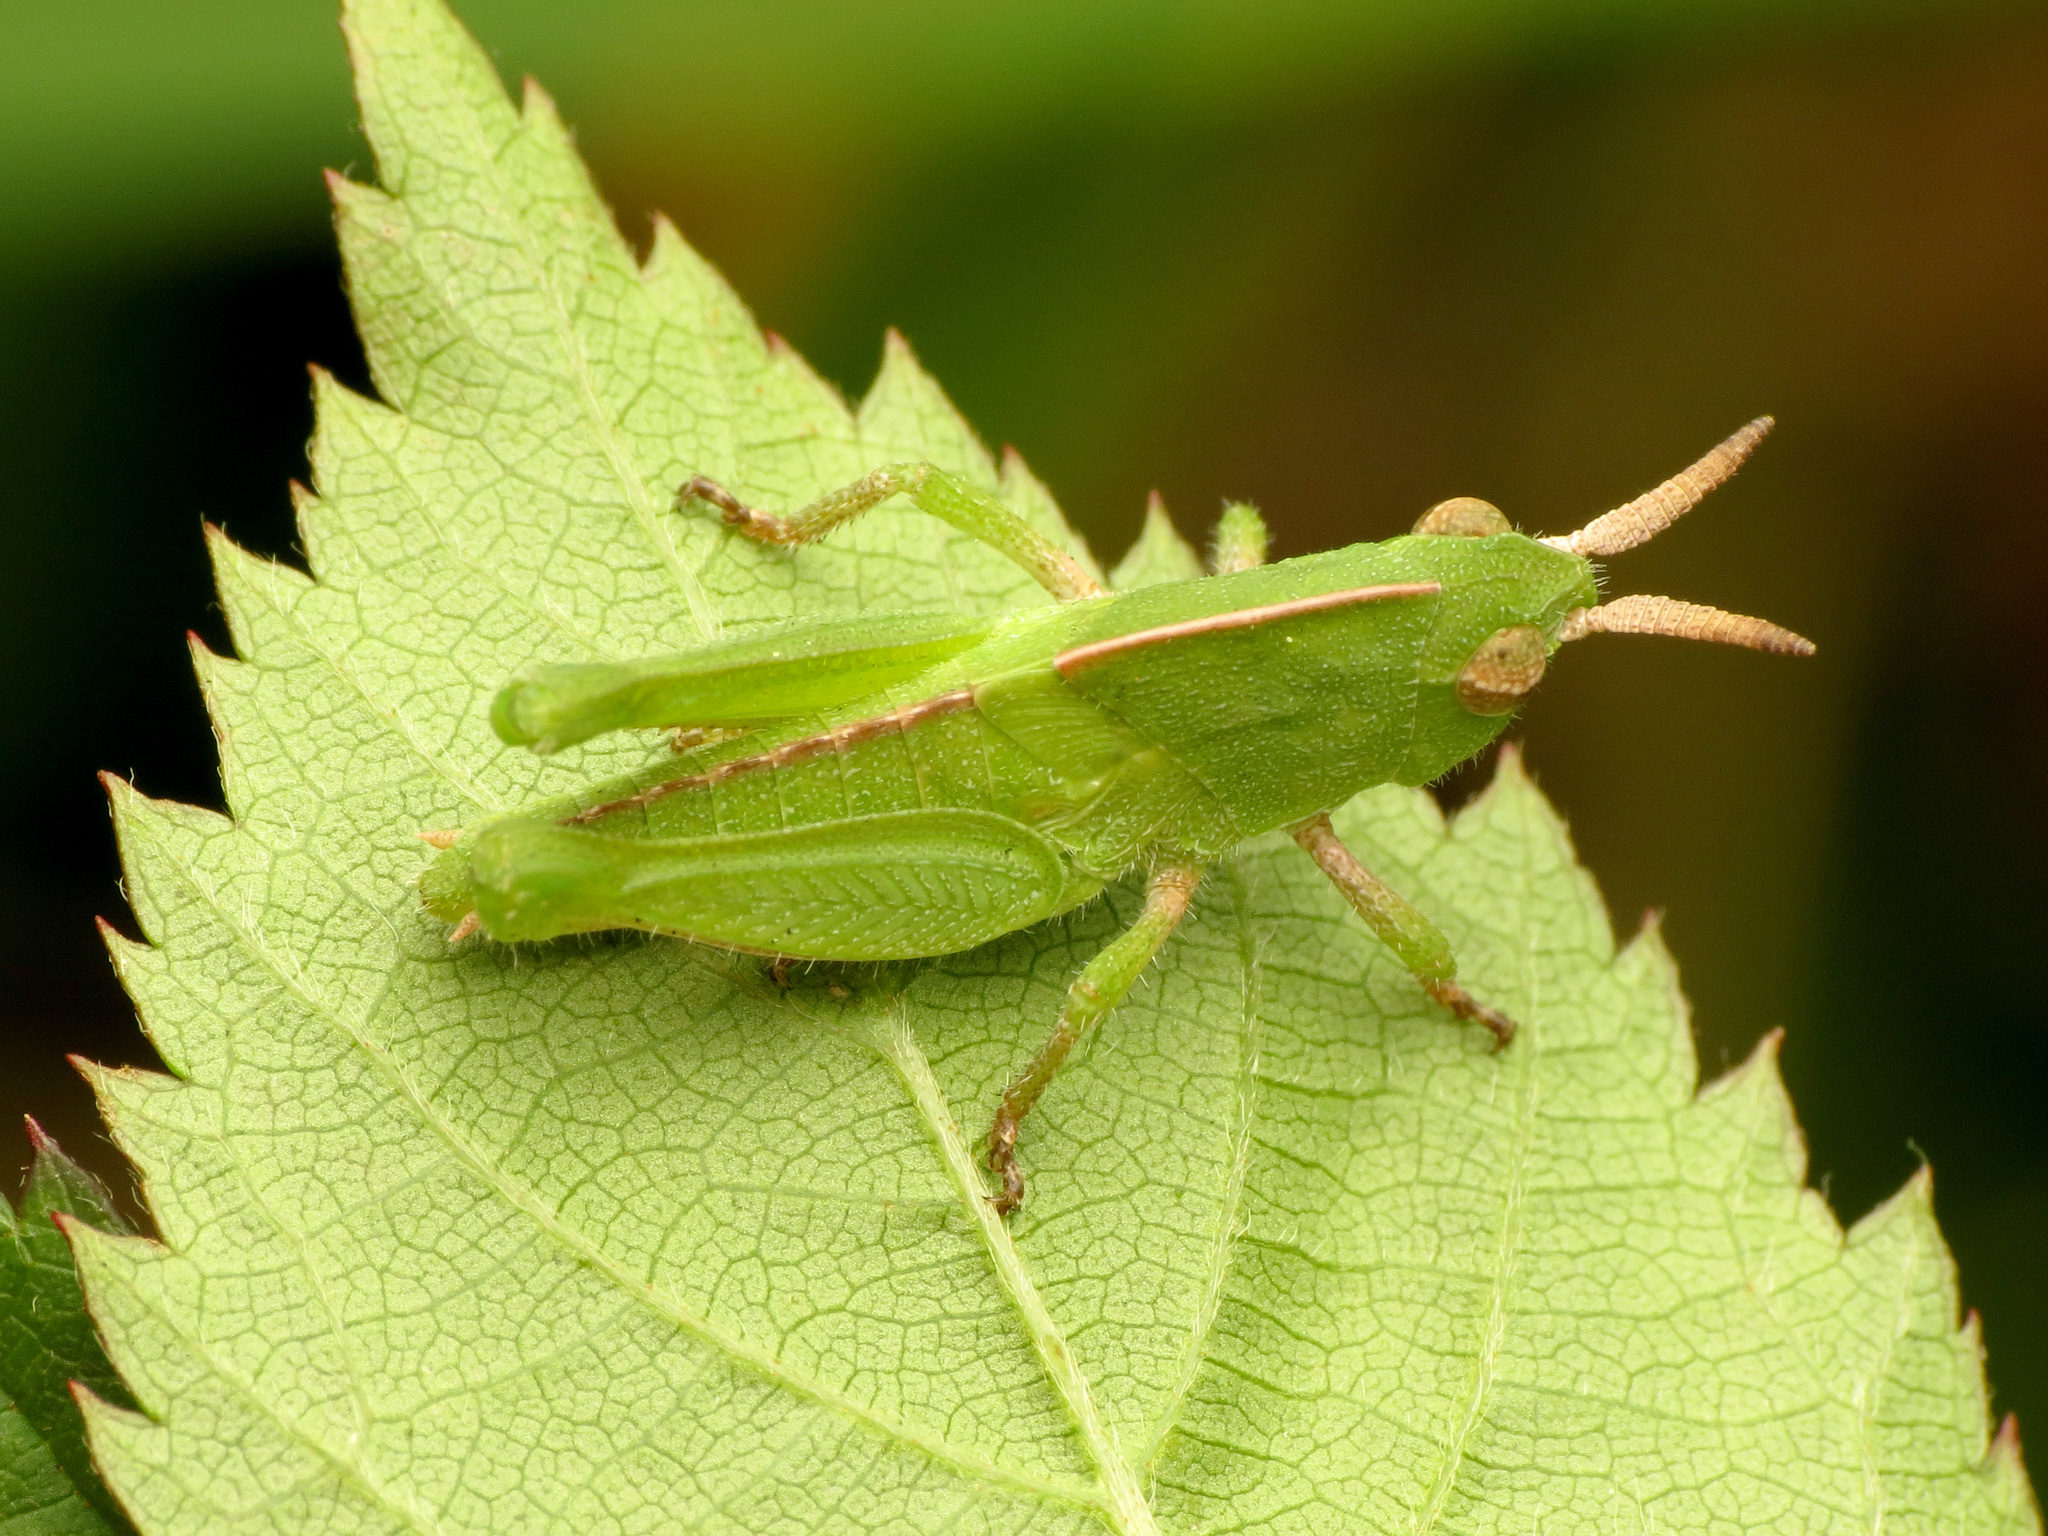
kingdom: Animalia
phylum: Arthropoda
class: Insecta
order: Orthoptera
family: Acrididae
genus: Chortophaga
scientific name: Chortophaga viridifasciata
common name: Green-striped grasshopper
